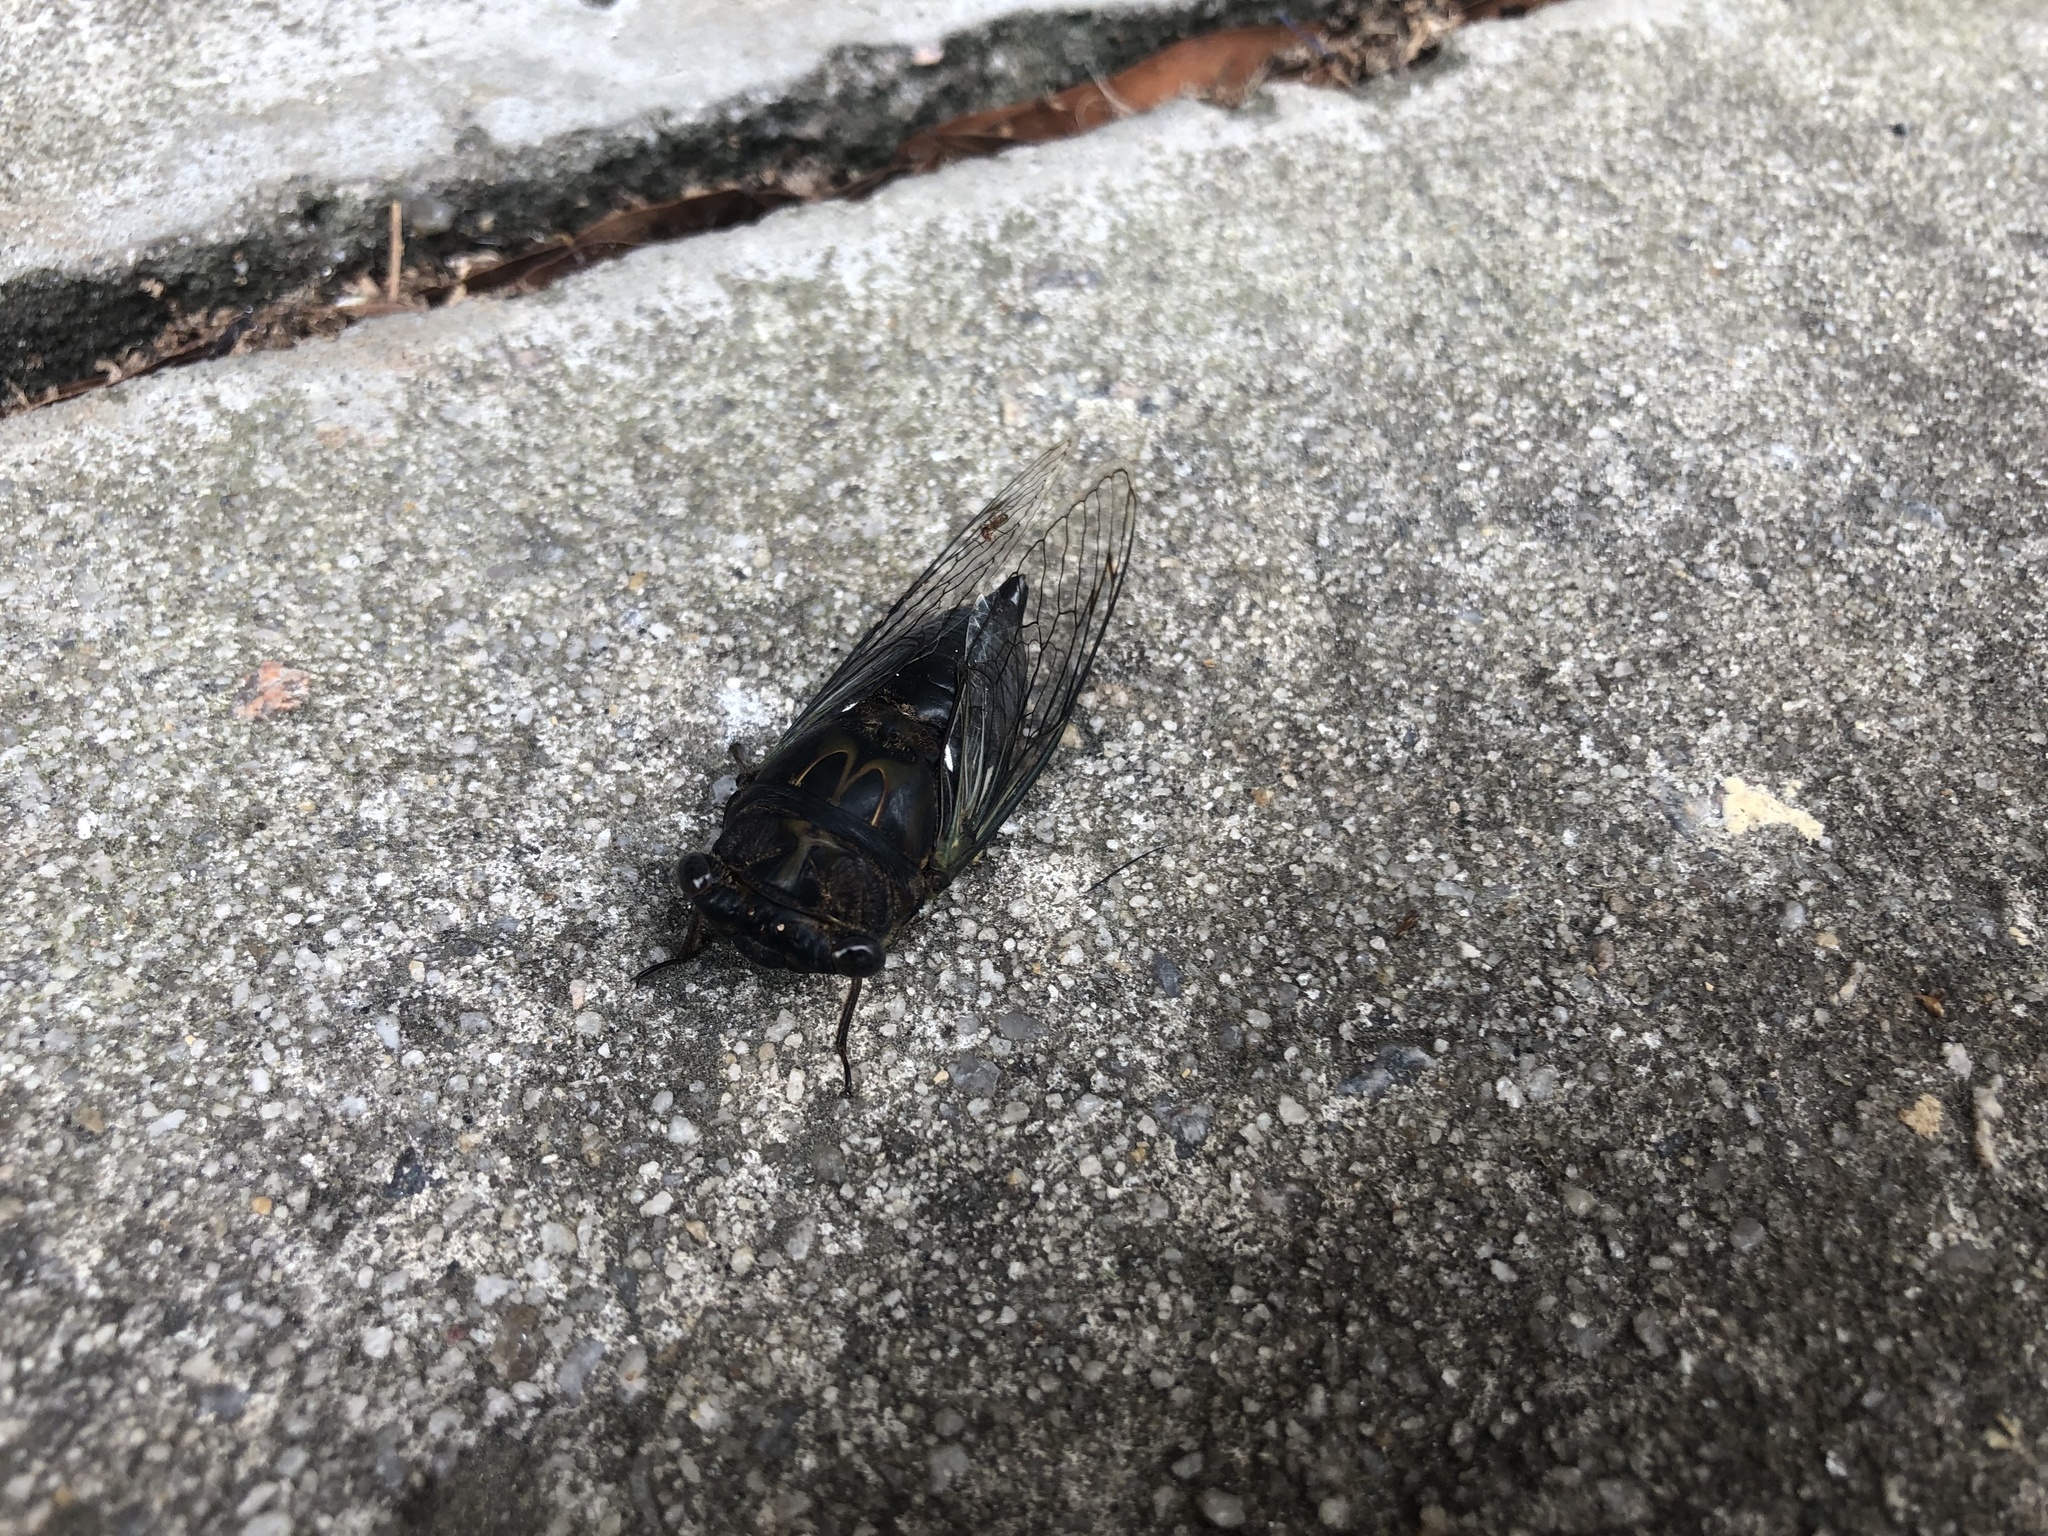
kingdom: Animalia
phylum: Arthropoda
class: Insecta
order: Hemiptera
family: Cicadidae
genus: Neotibicen
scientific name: Neotibicen similaris
